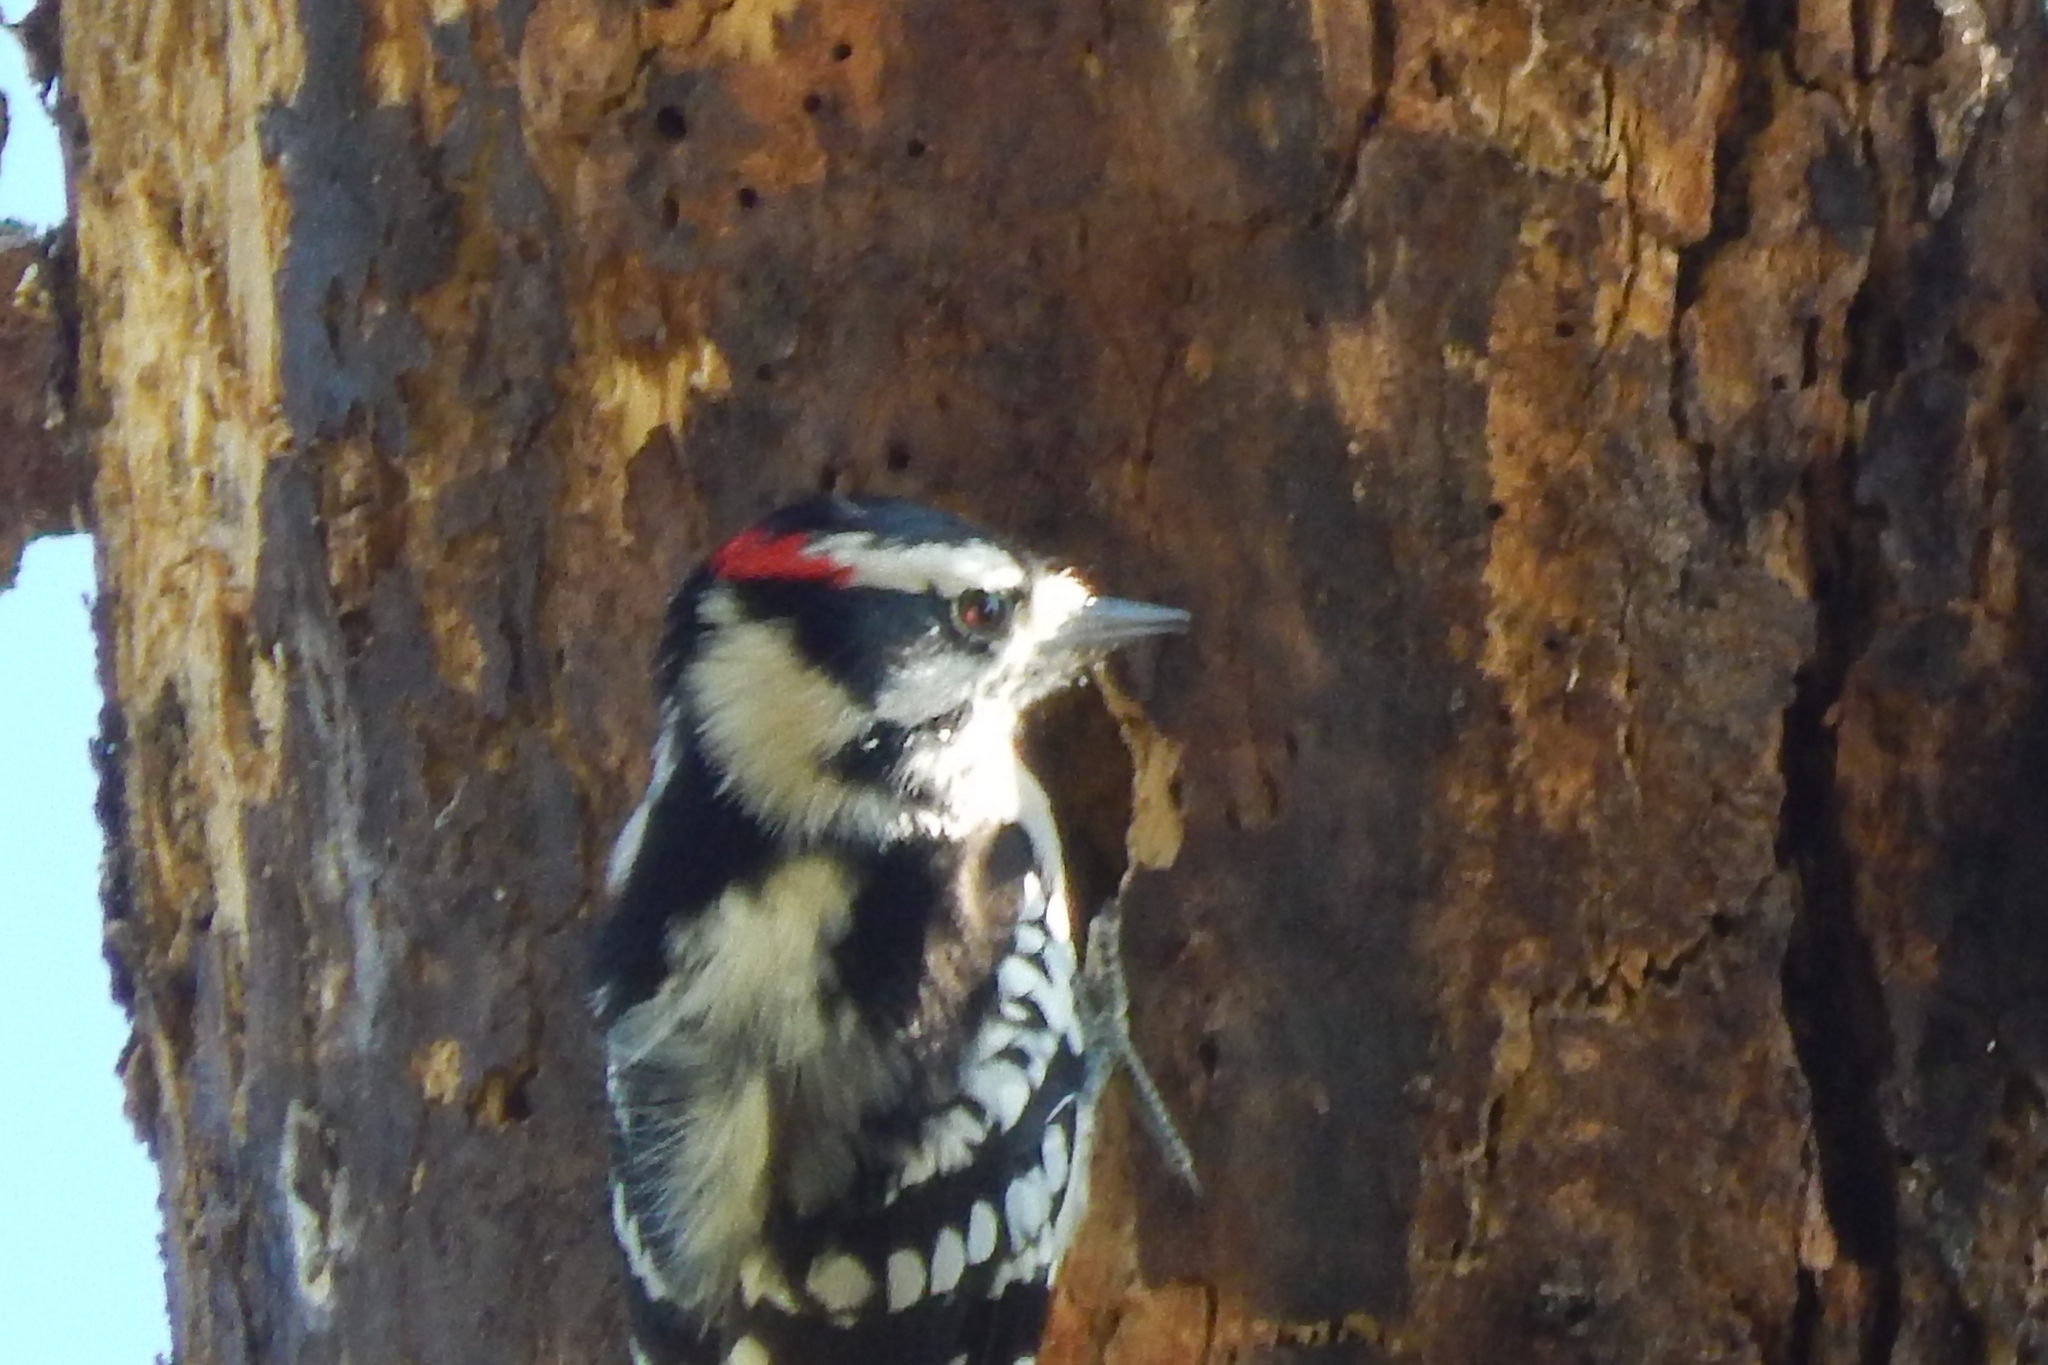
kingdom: Animalia
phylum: Chordata
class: Aves
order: Piciformes
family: Picidae
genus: Dryobates
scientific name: Dryobates pubescens
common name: Downy woodpecker
